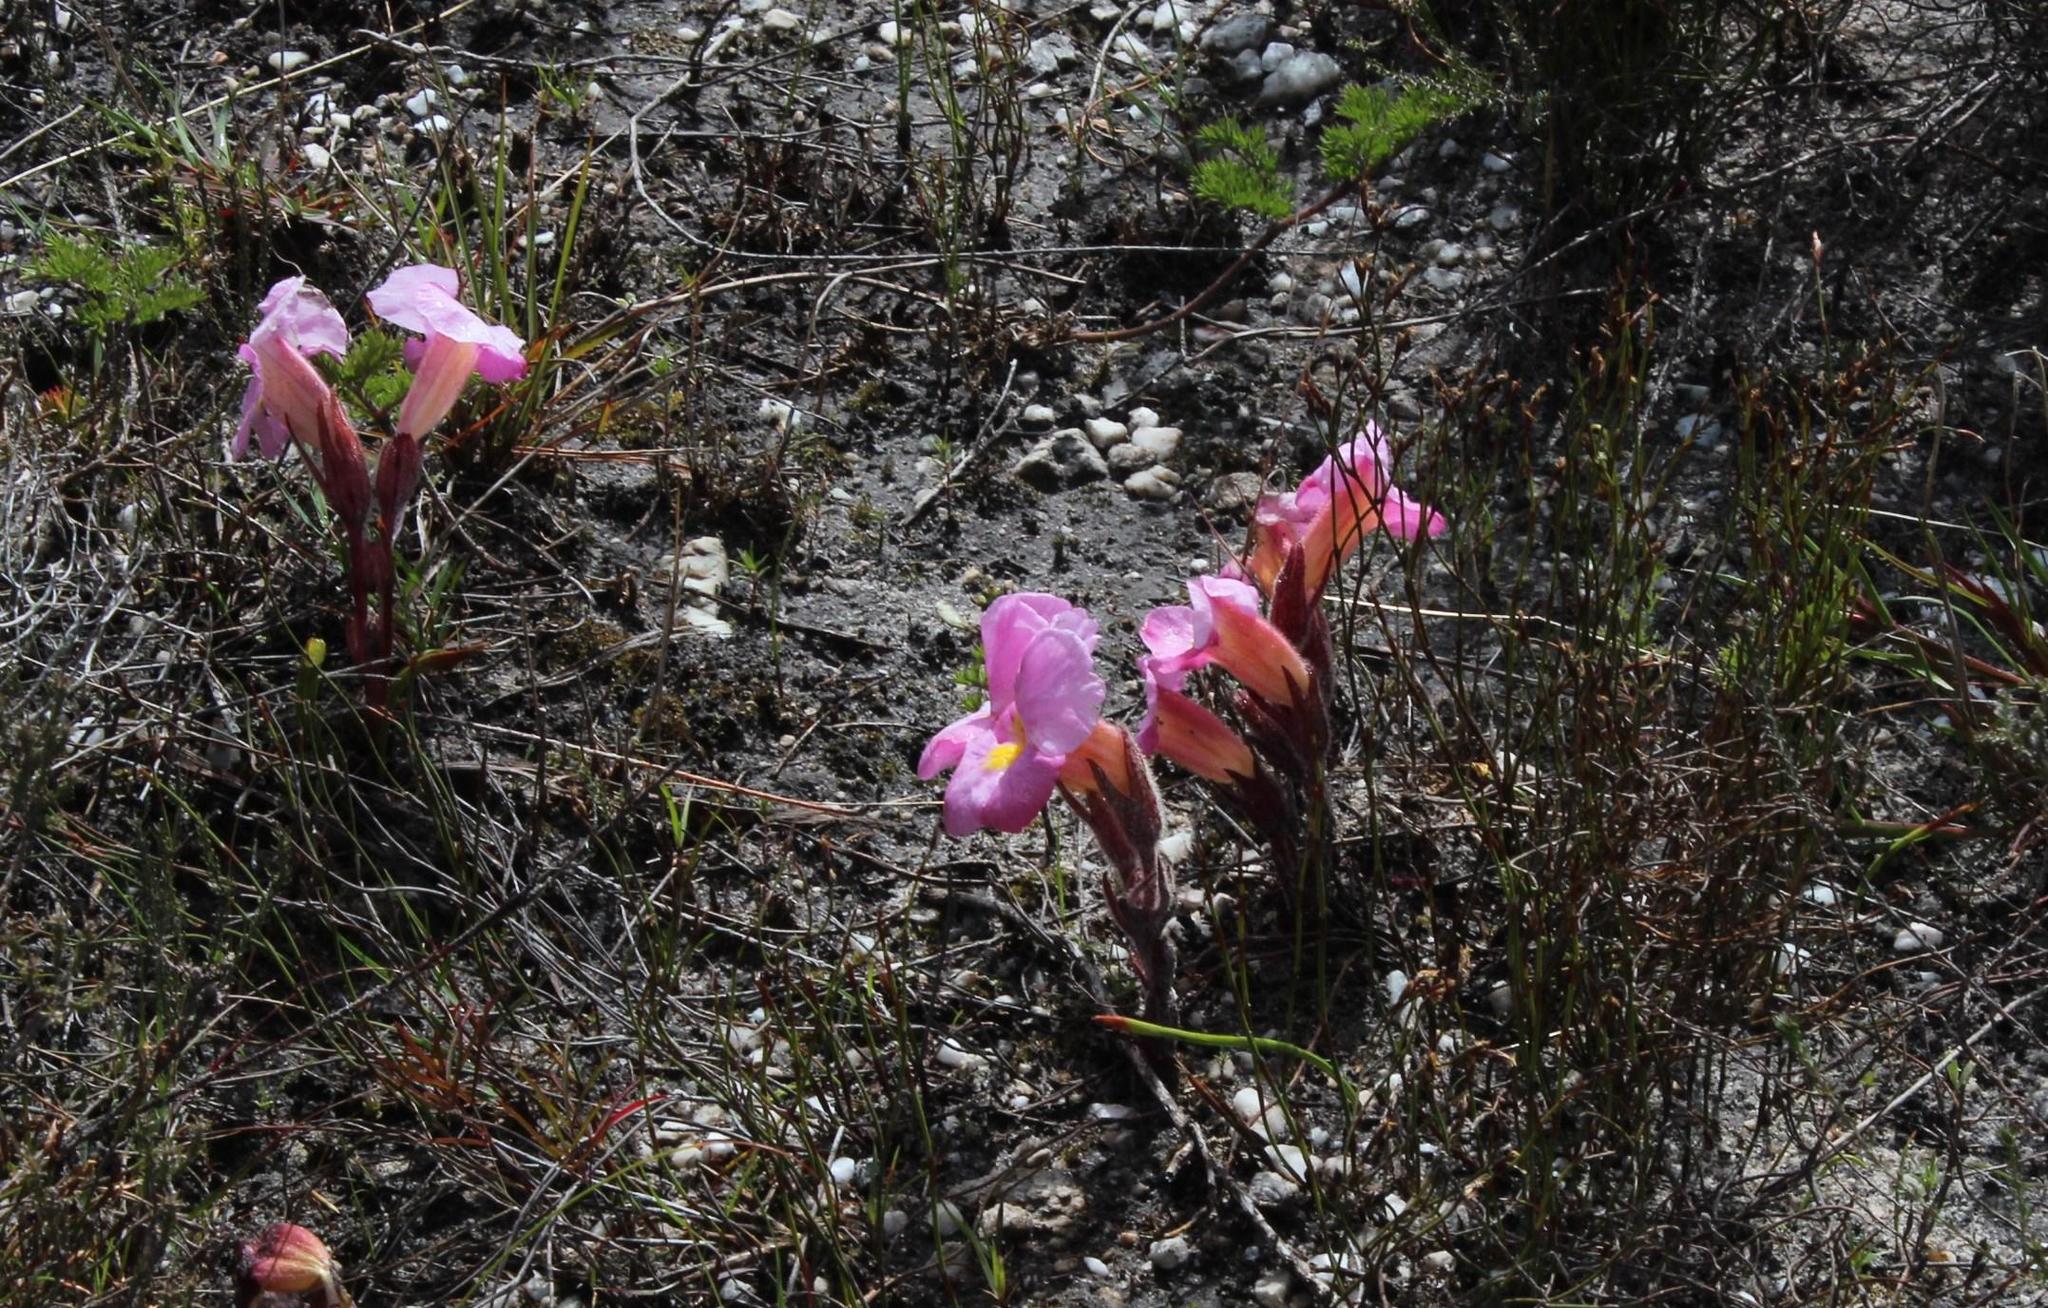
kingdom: Plantae
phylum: Tracheophyta
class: Magnoliopsida
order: Lamiales
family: Orobanchaceae
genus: Harveya
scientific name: Harveya purpurea
